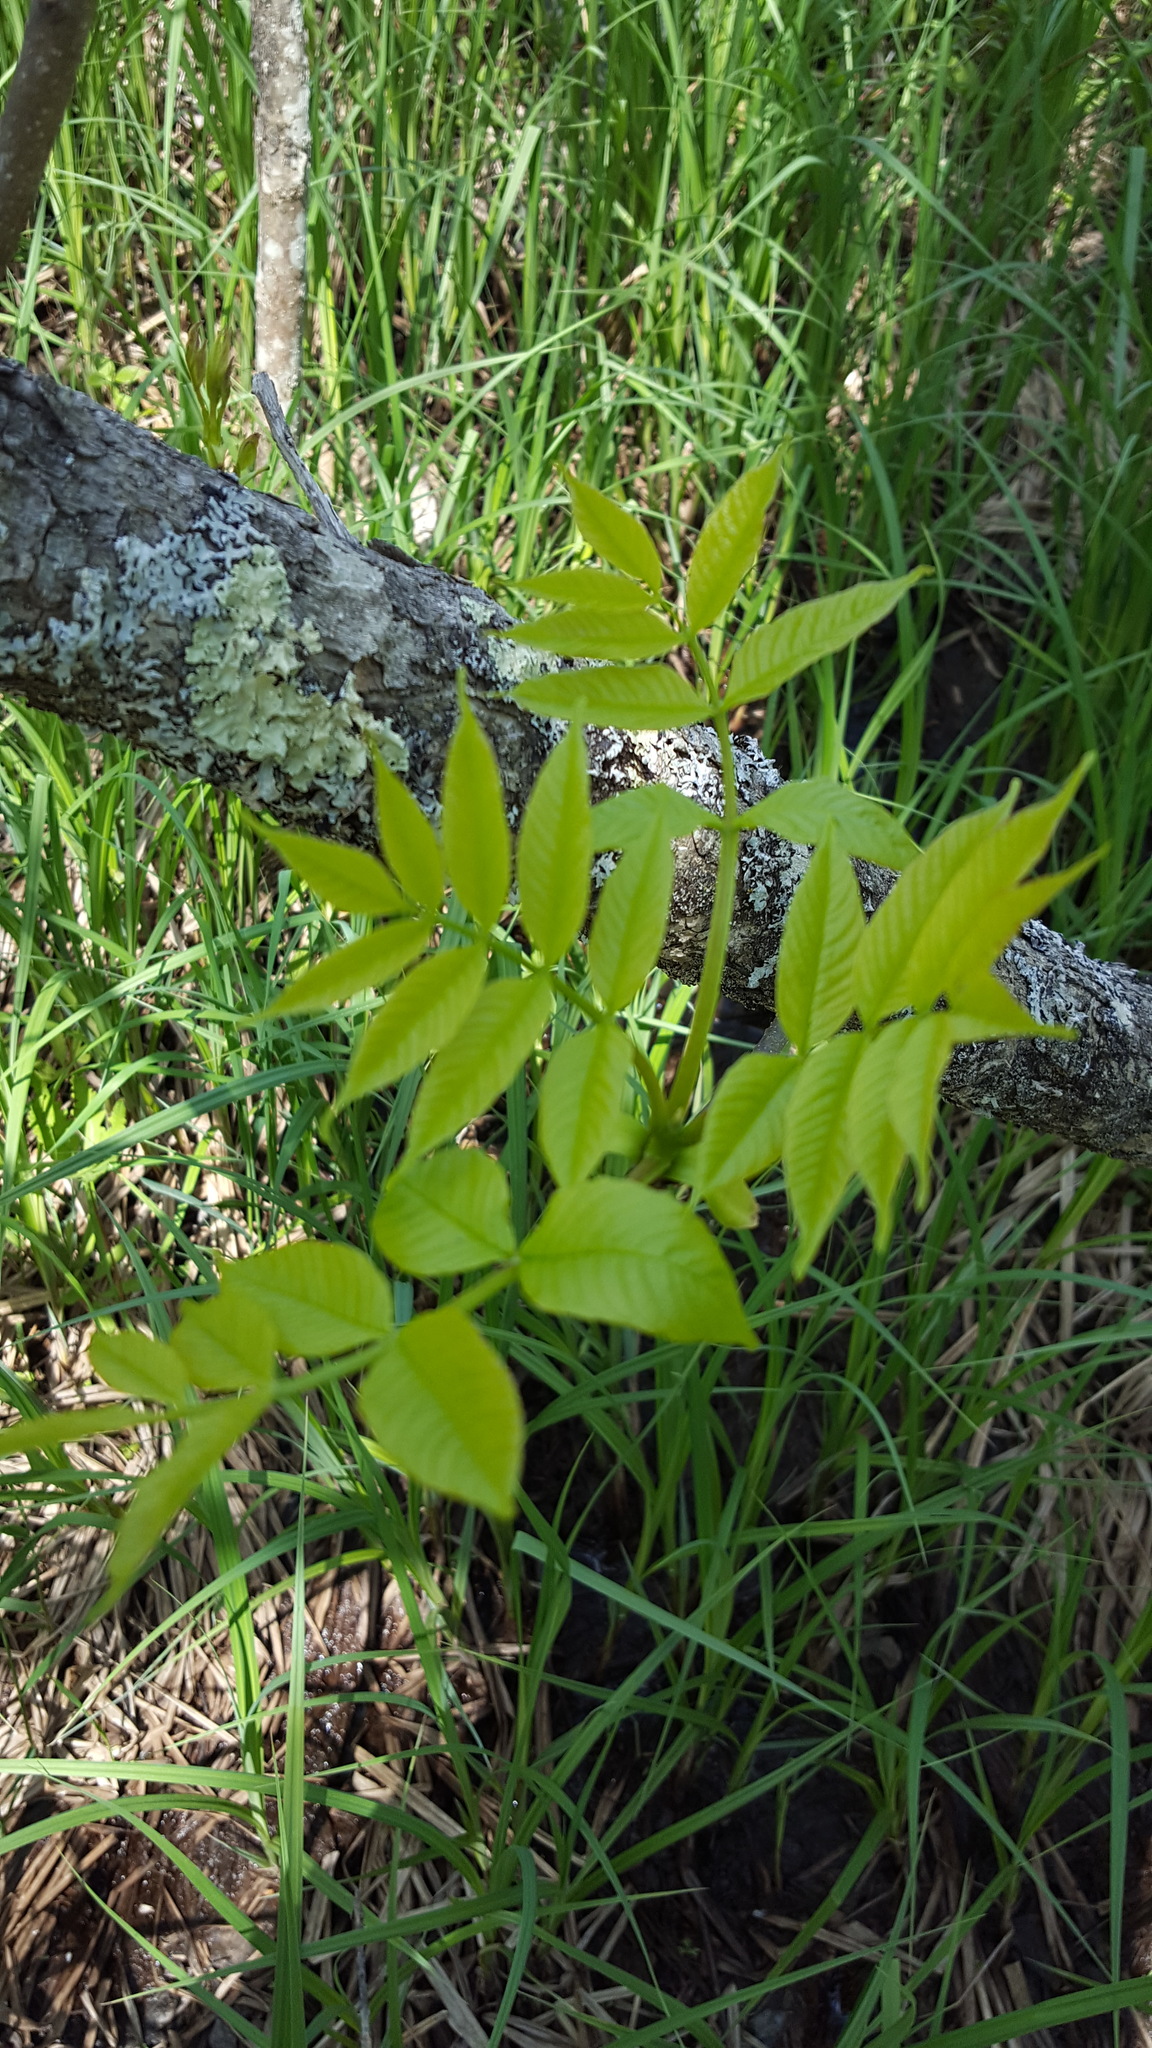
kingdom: Plantae
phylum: Tracheophyta
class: Magnoliopsida
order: Lamiales
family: Oleaceae
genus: Fraxinus
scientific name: Fraxinus nigra
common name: Black ash
